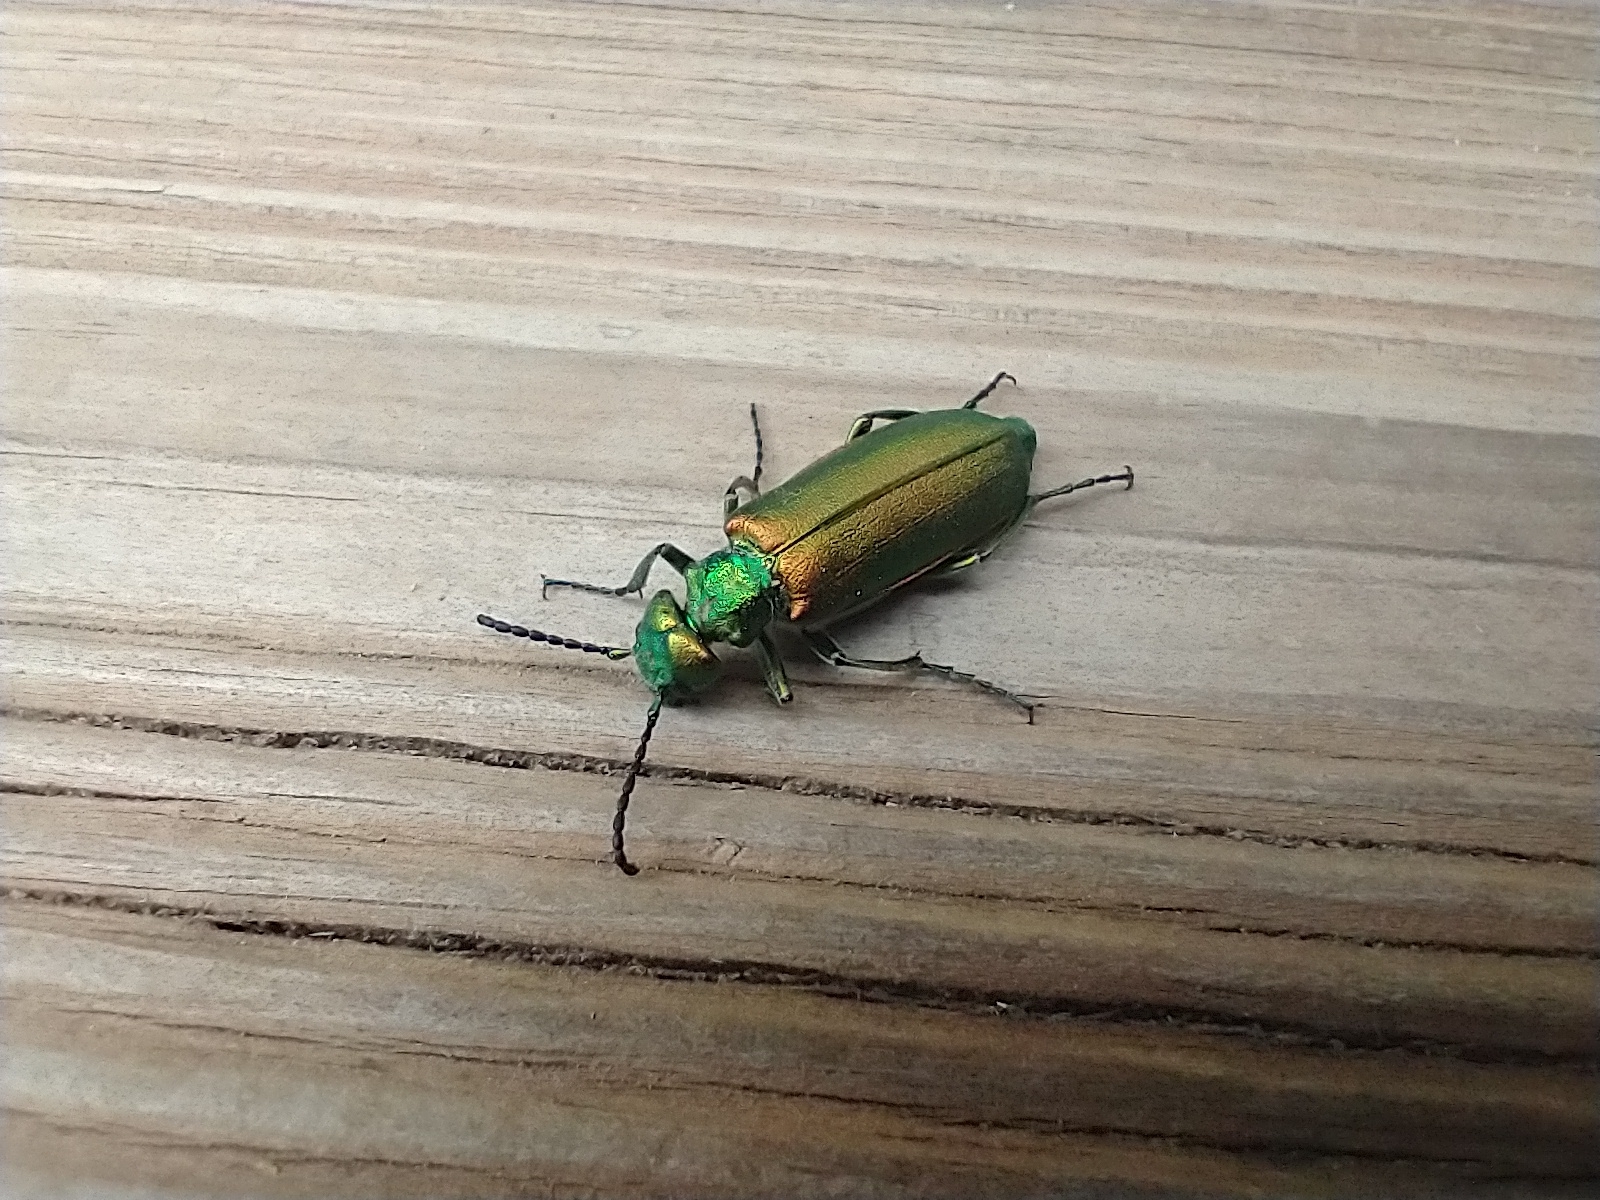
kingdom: Animalia
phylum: Arthropoda
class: Insecta
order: Coleoptera
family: Meloidae
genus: Lytta
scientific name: Lytta vesicatoria
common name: Spanish fly
